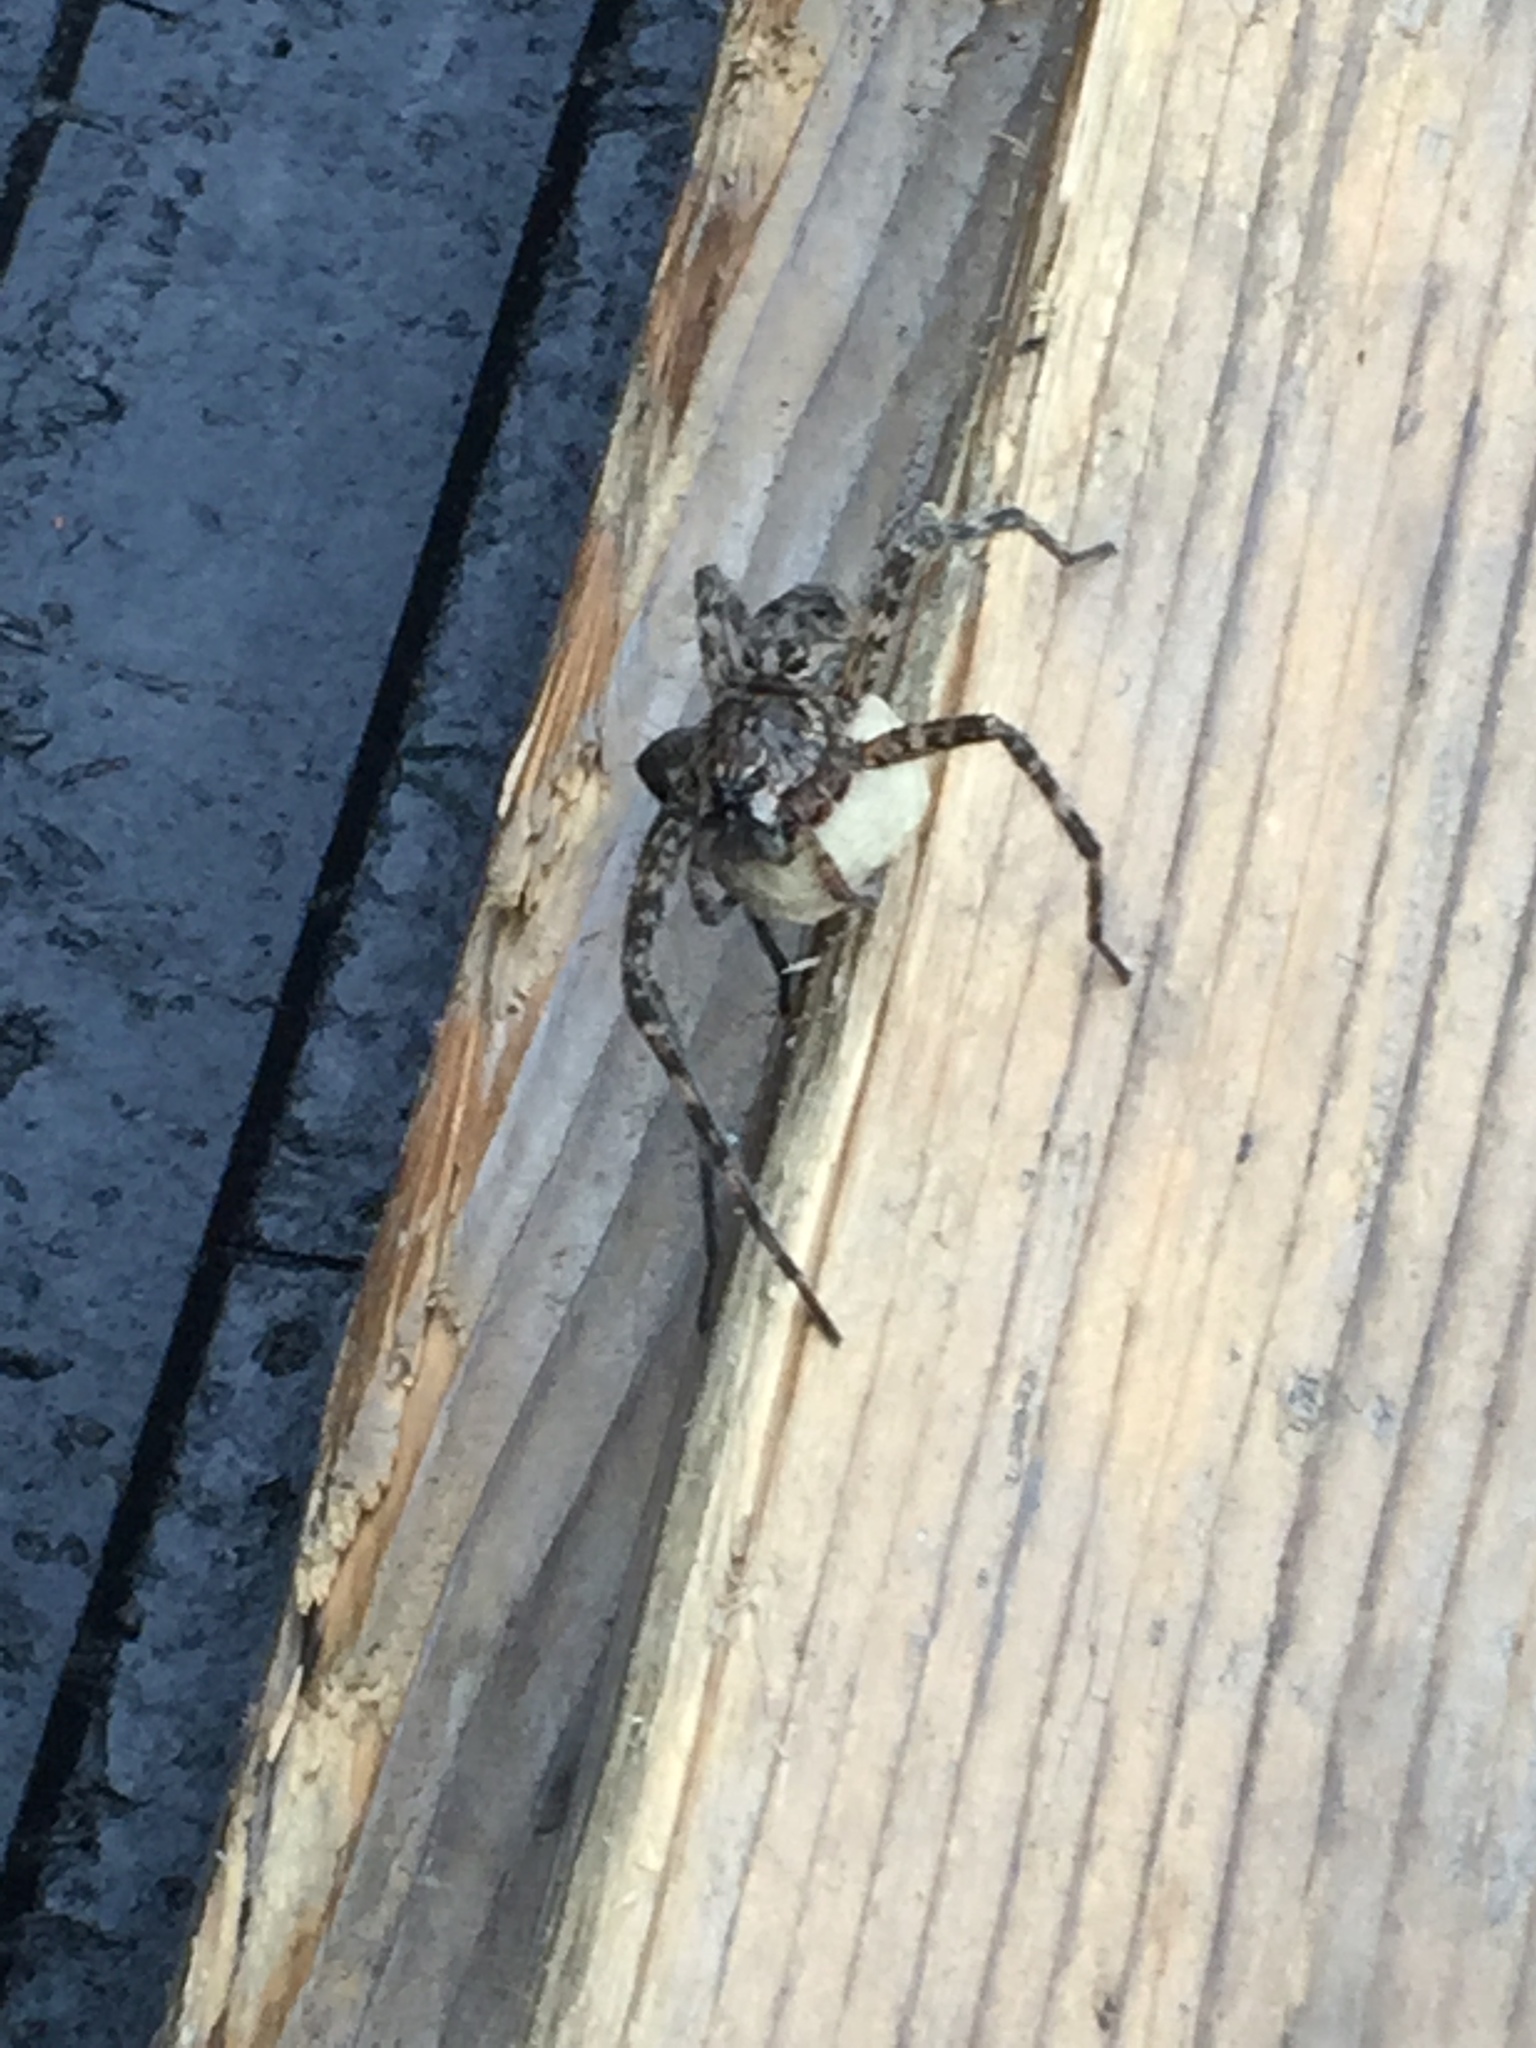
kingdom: Animalia
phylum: Arthropoda
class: Arachnida
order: Araneae
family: Pisauridae
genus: Dolomedes
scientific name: Dolomedes tenebrosus
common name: Dark fishing spider
